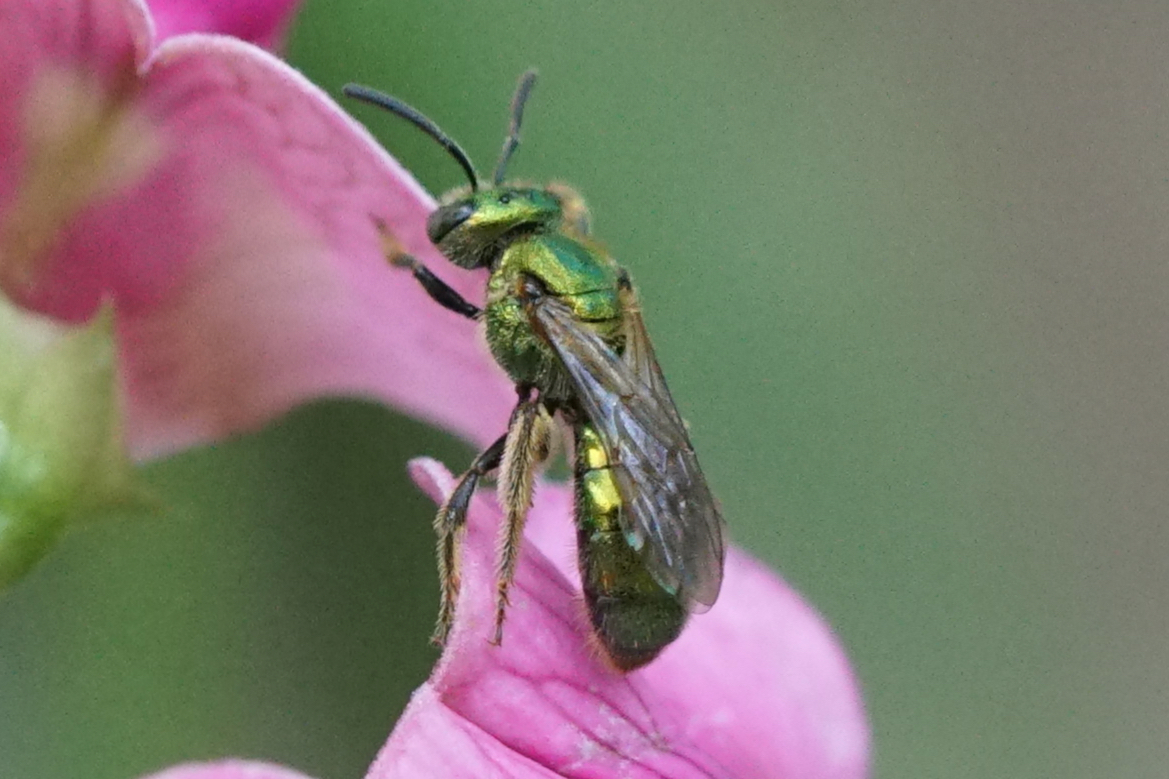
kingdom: Animalia
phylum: Arthropoda
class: Insecta
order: Hymenoptera
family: Halictidae
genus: Augochlora
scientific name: Augochlora pura
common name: Pure green sweat bee
